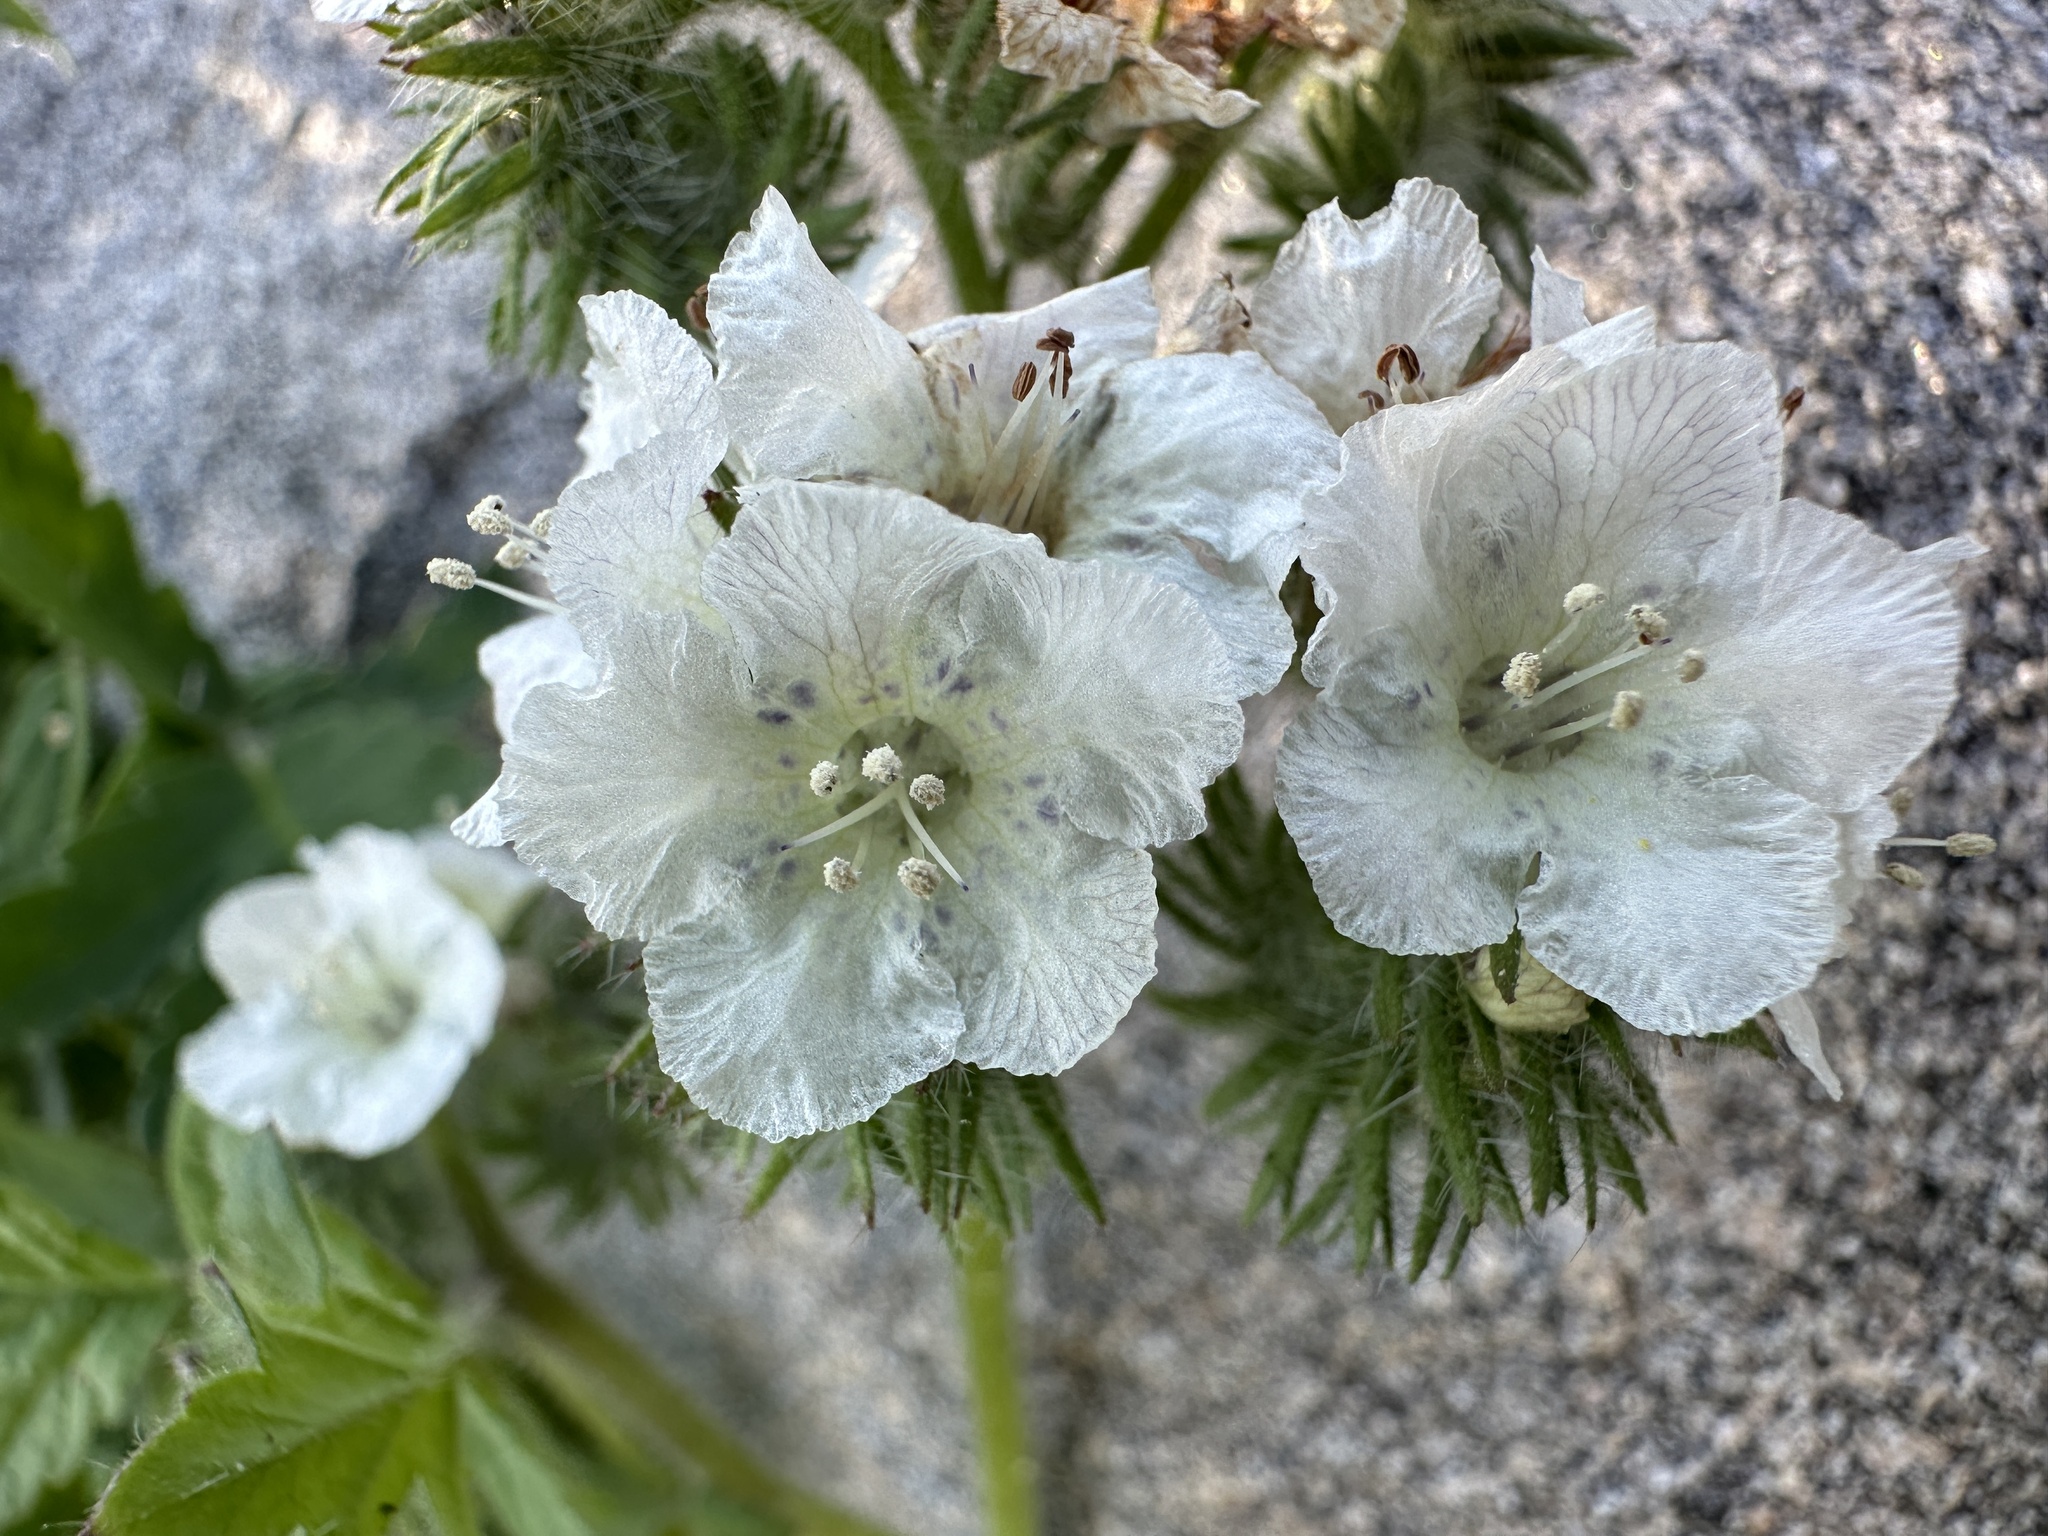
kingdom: Plantae
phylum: Tracheophyta
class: Magnoliopsida
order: Boraginales
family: Hydrophyllaceae
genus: Phacelia
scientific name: Phacelia cicutaria
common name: Caterpillar phacelia
